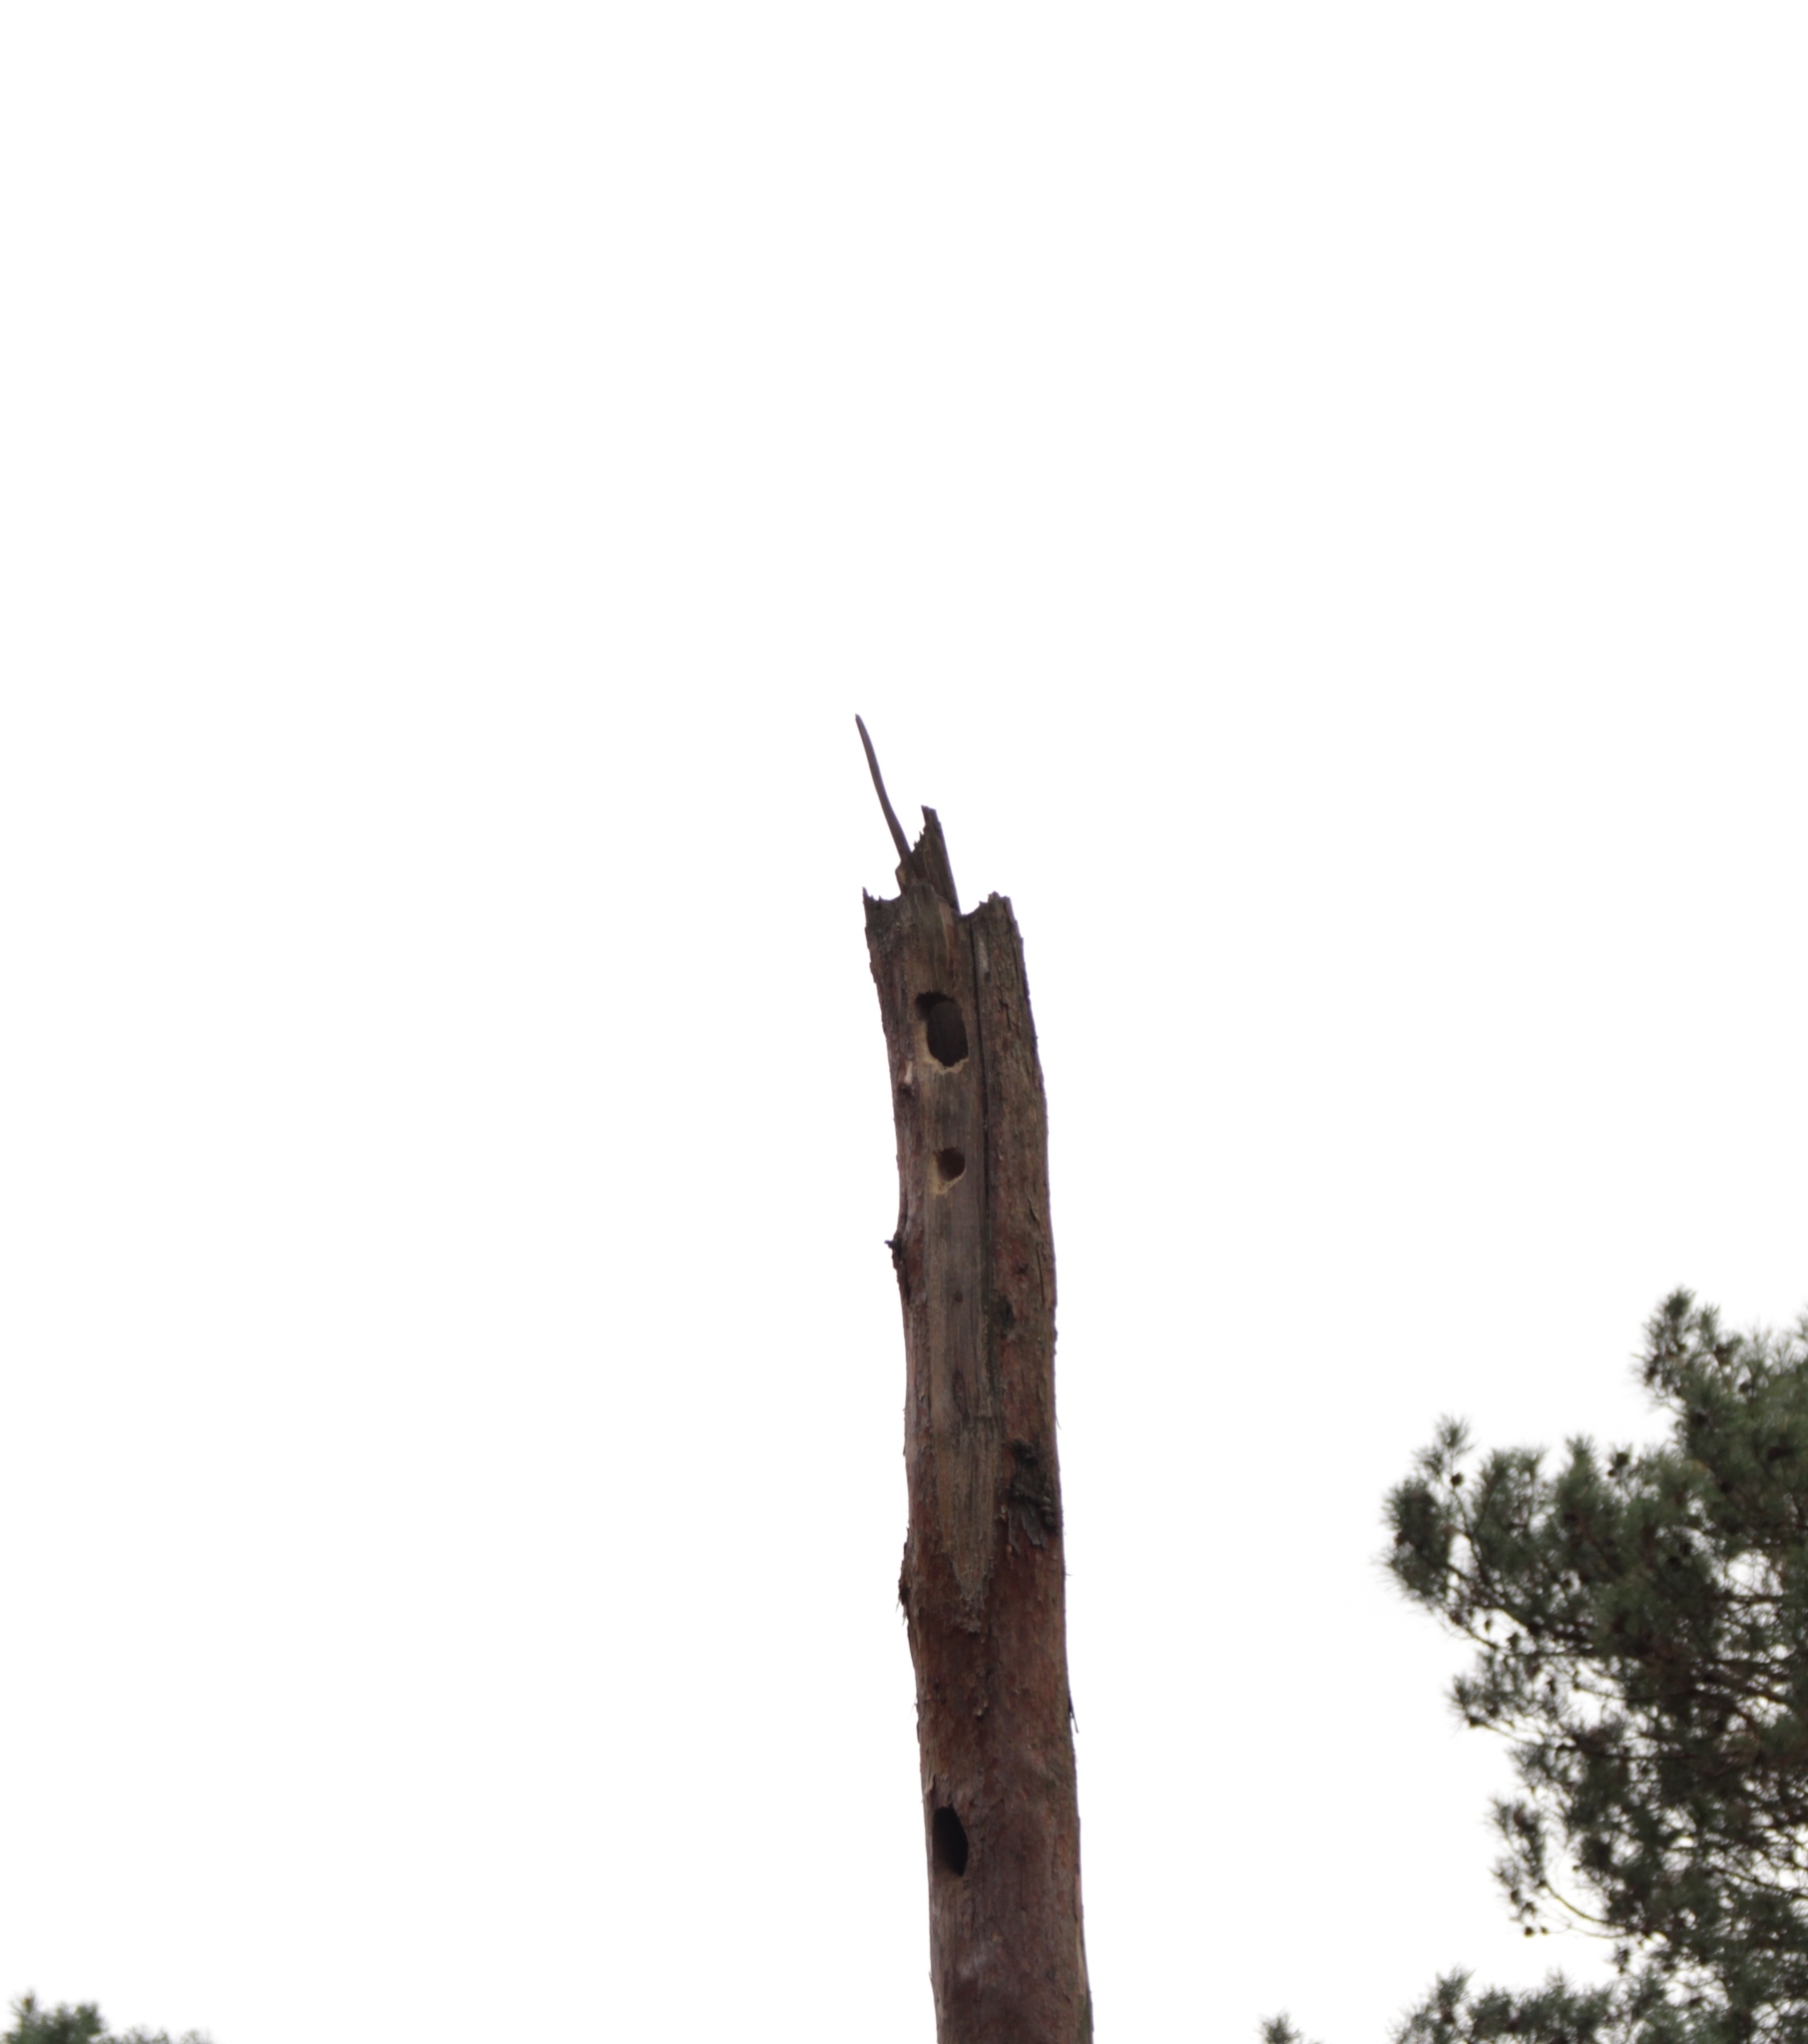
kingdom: Animalia
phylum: Chordata
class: Aves
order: Piciformes
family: Picidae
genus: Dryocopus
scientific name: Dryocopus martius
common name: Black woodpecker
